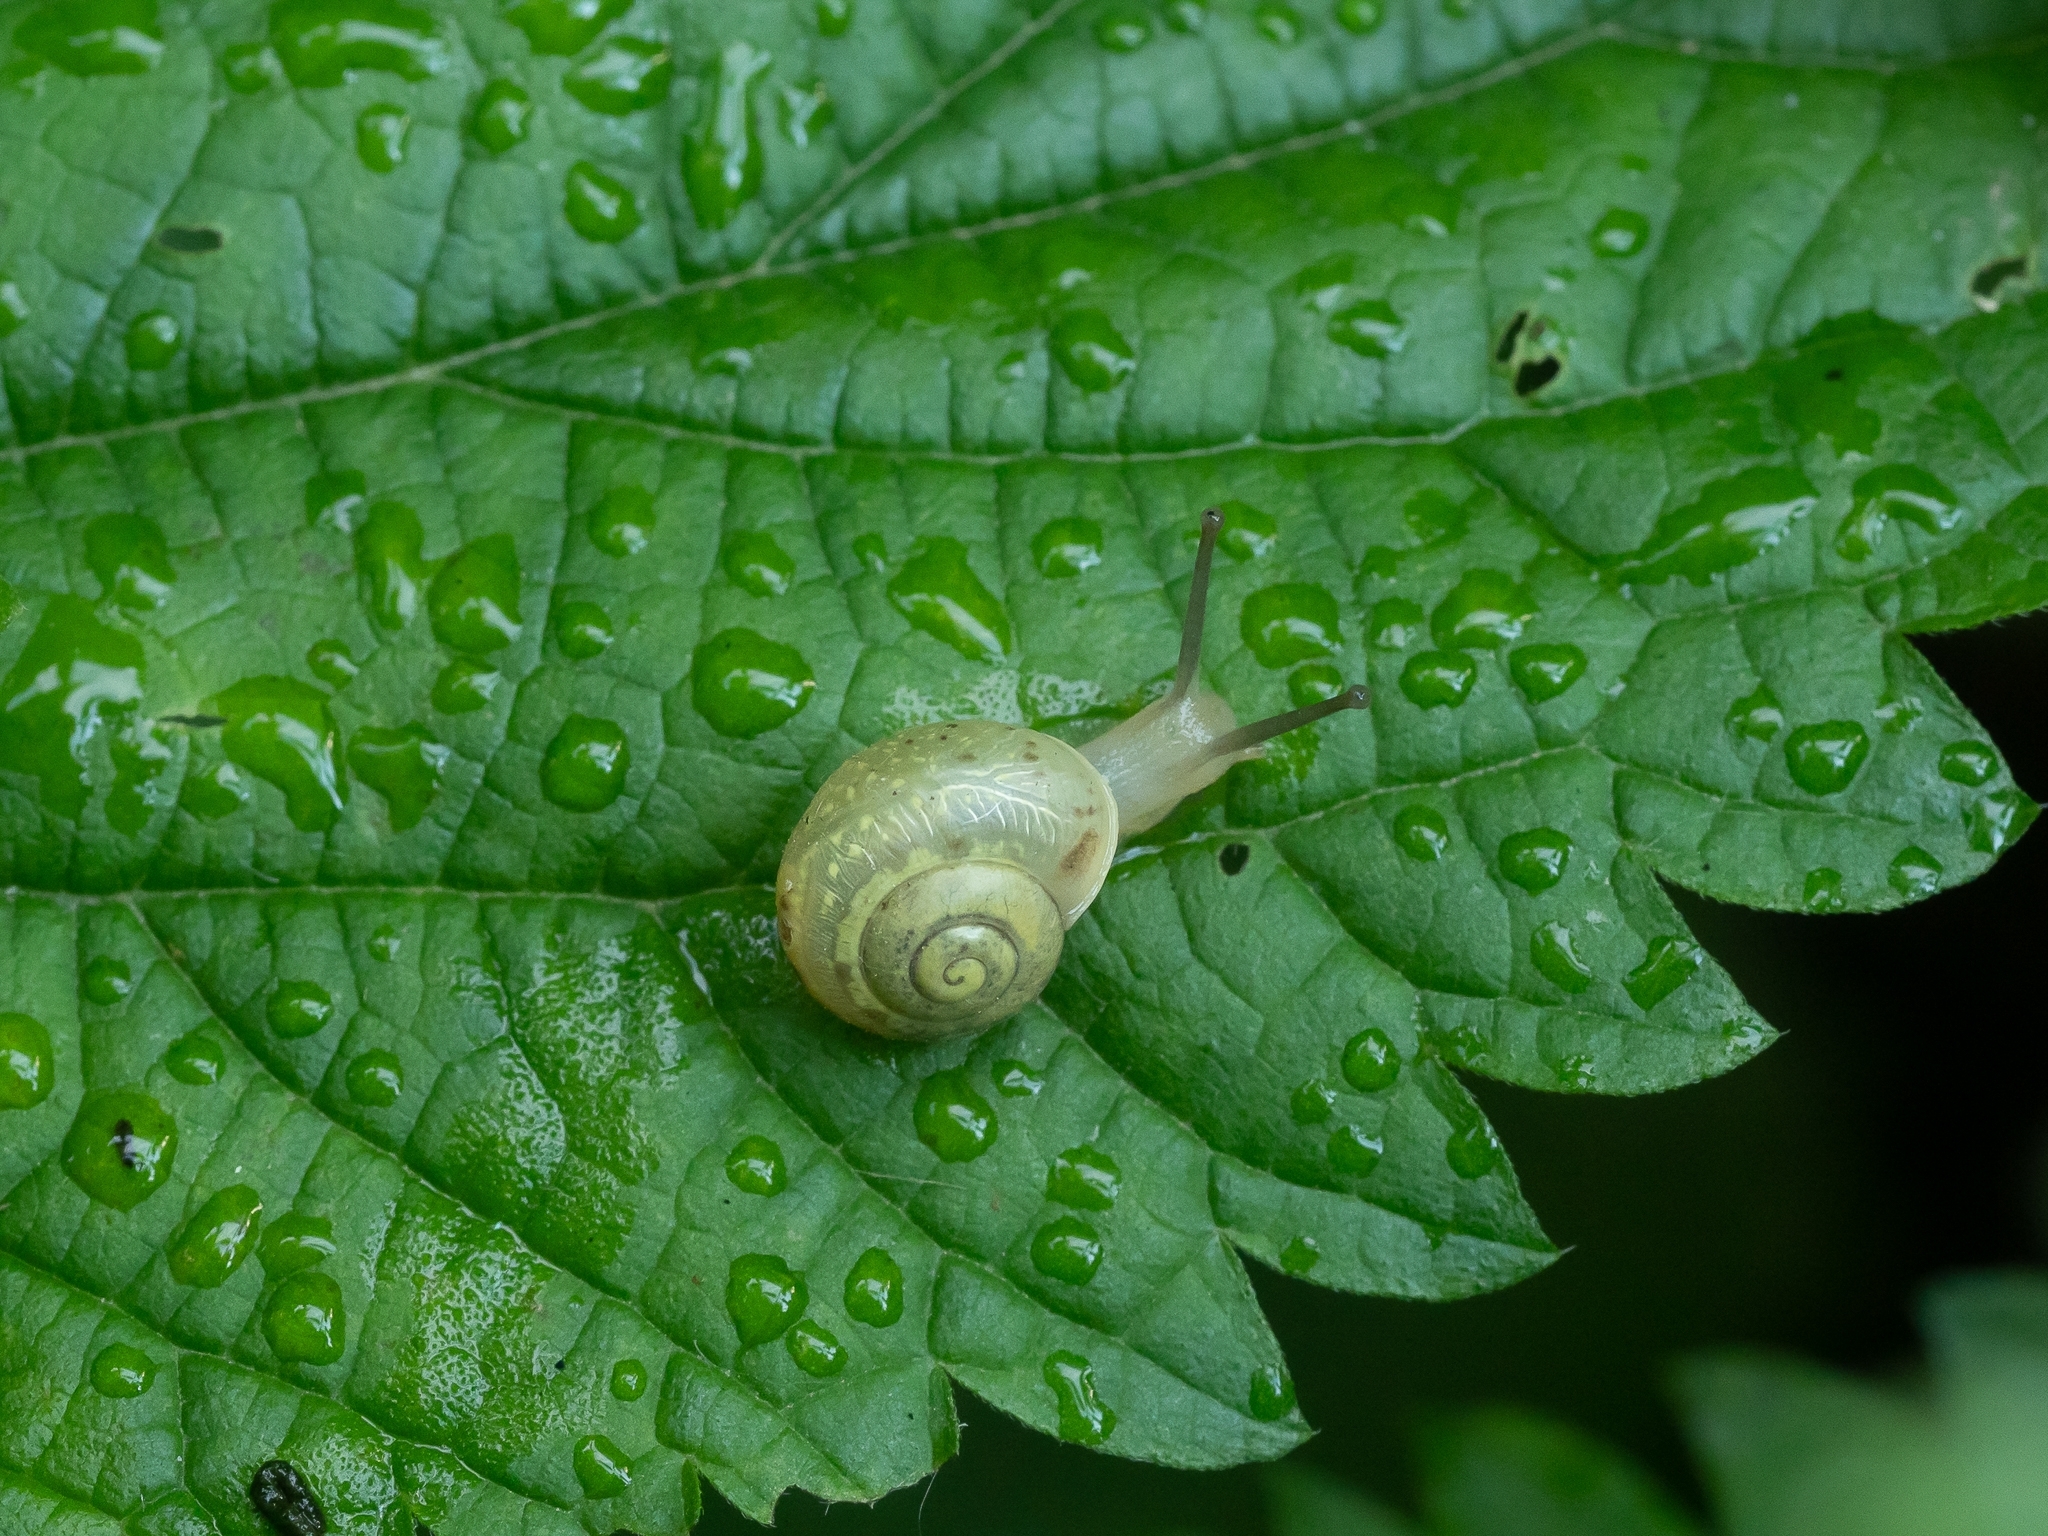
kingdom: Animalia
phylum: Mollusca
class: Gastropoda
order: Stylommatophora
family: Camaenidae
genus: Fruticicola
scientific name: Fruticicola fruticum
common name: Bush snail
